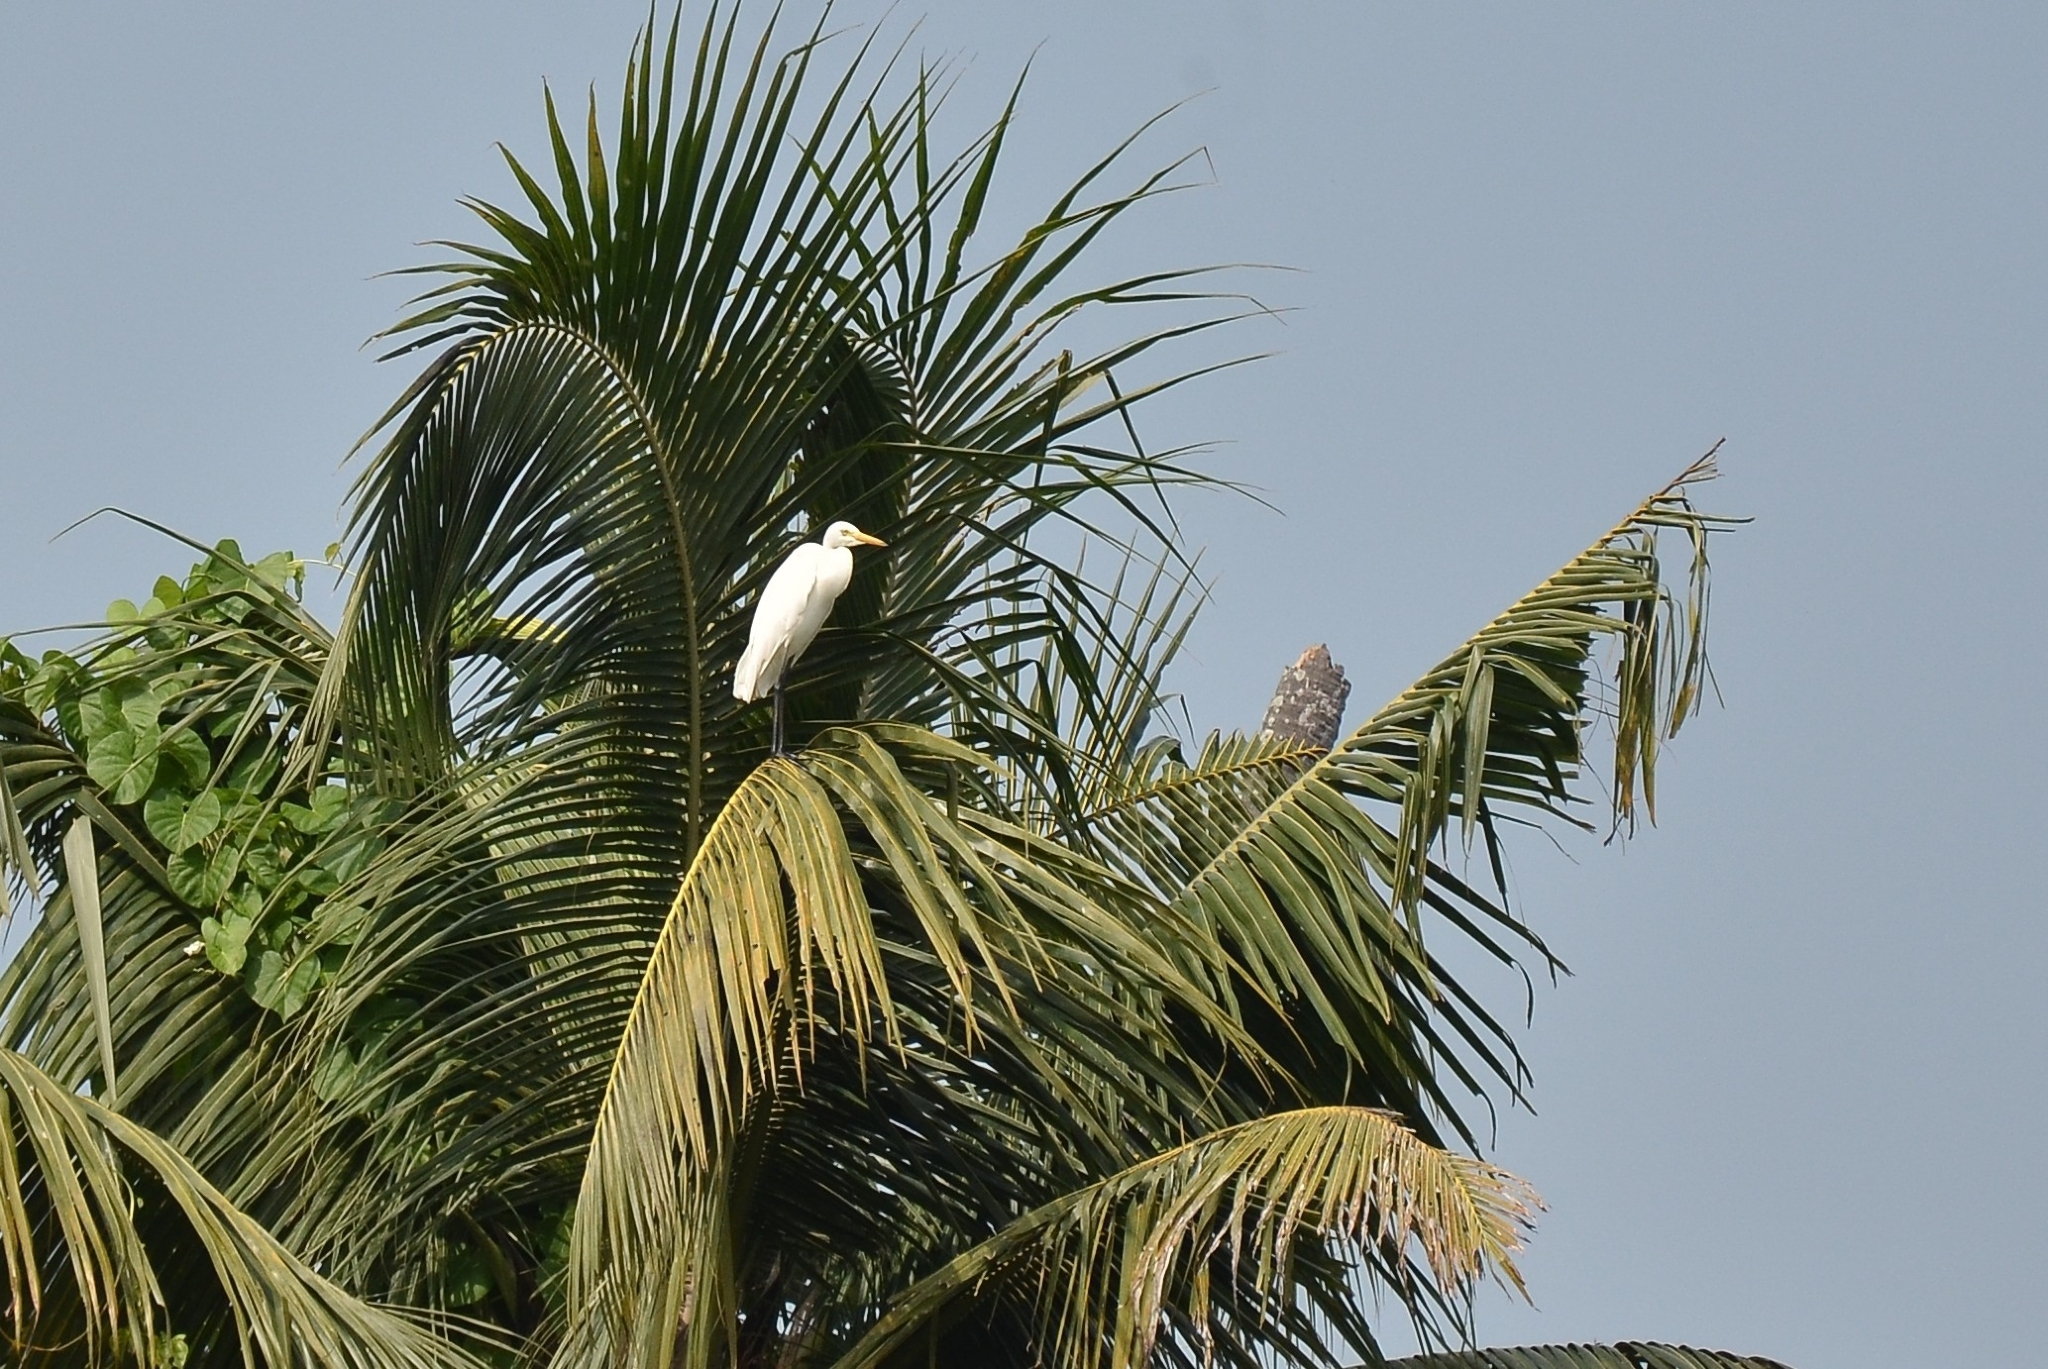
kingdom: Animalia
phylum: Chordata
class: Aves
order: Pelecaniformes
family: Ardeidae
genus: Egretta
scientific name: Egretta intermedia
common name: Intermediate egret
